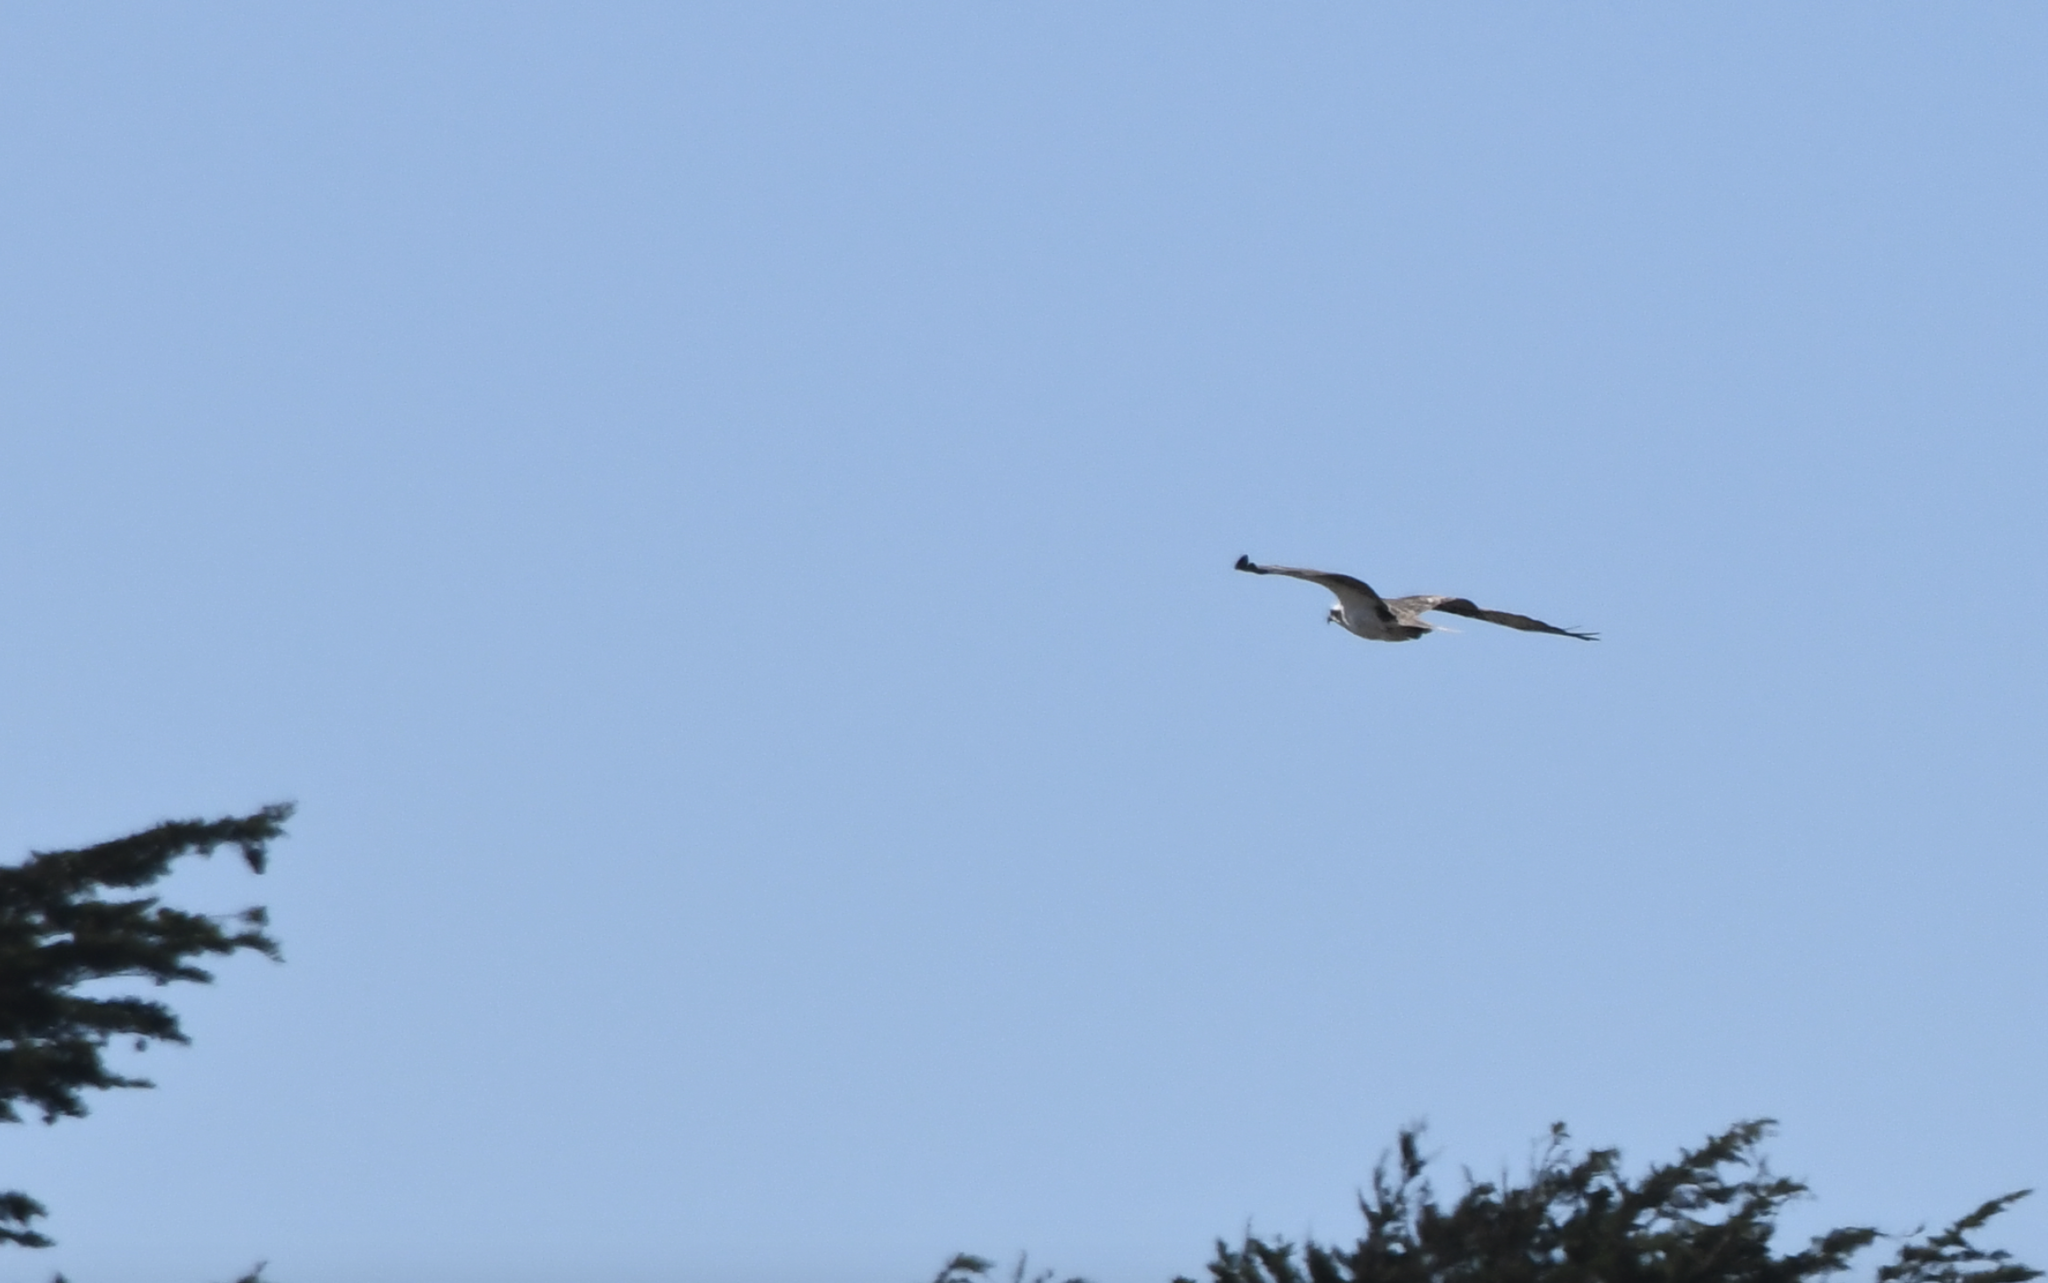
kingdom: Animalia
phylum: Chordata
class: Aves
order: Accipitriformes
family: Pandionidae
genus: Pandion
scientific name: Pandion haliaetus
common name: Osprey
